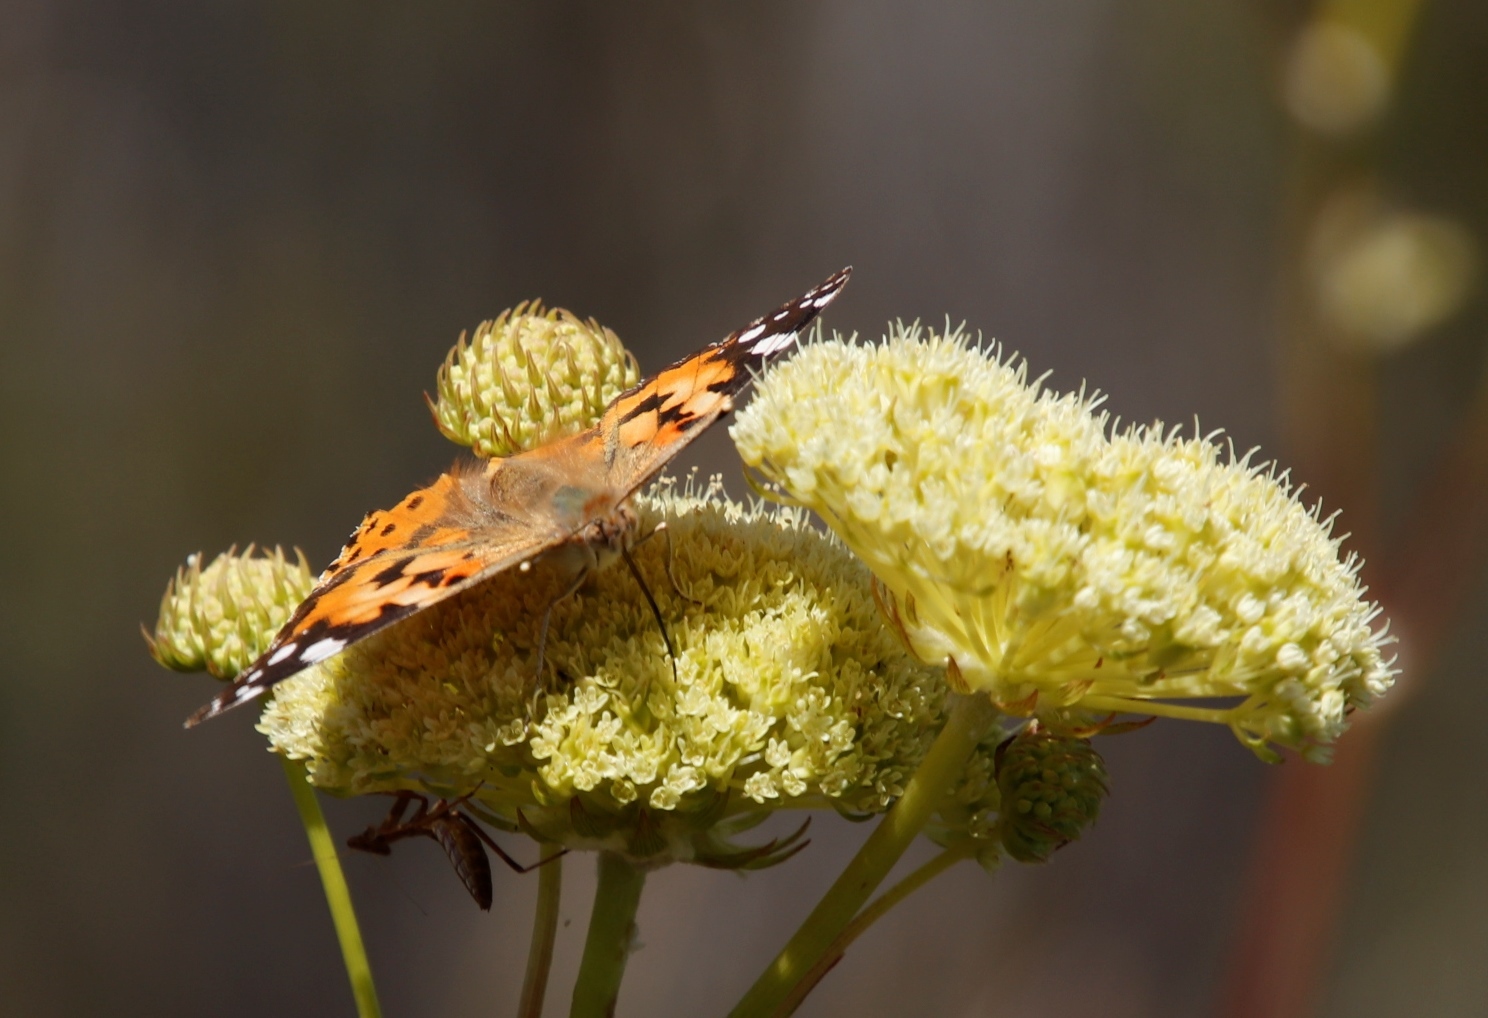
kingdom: Plantae
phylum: Tracheophyta
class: Magnoliopsida
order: Apiales
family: Apiaceae
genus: Hermas
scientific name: Hermas villosa
